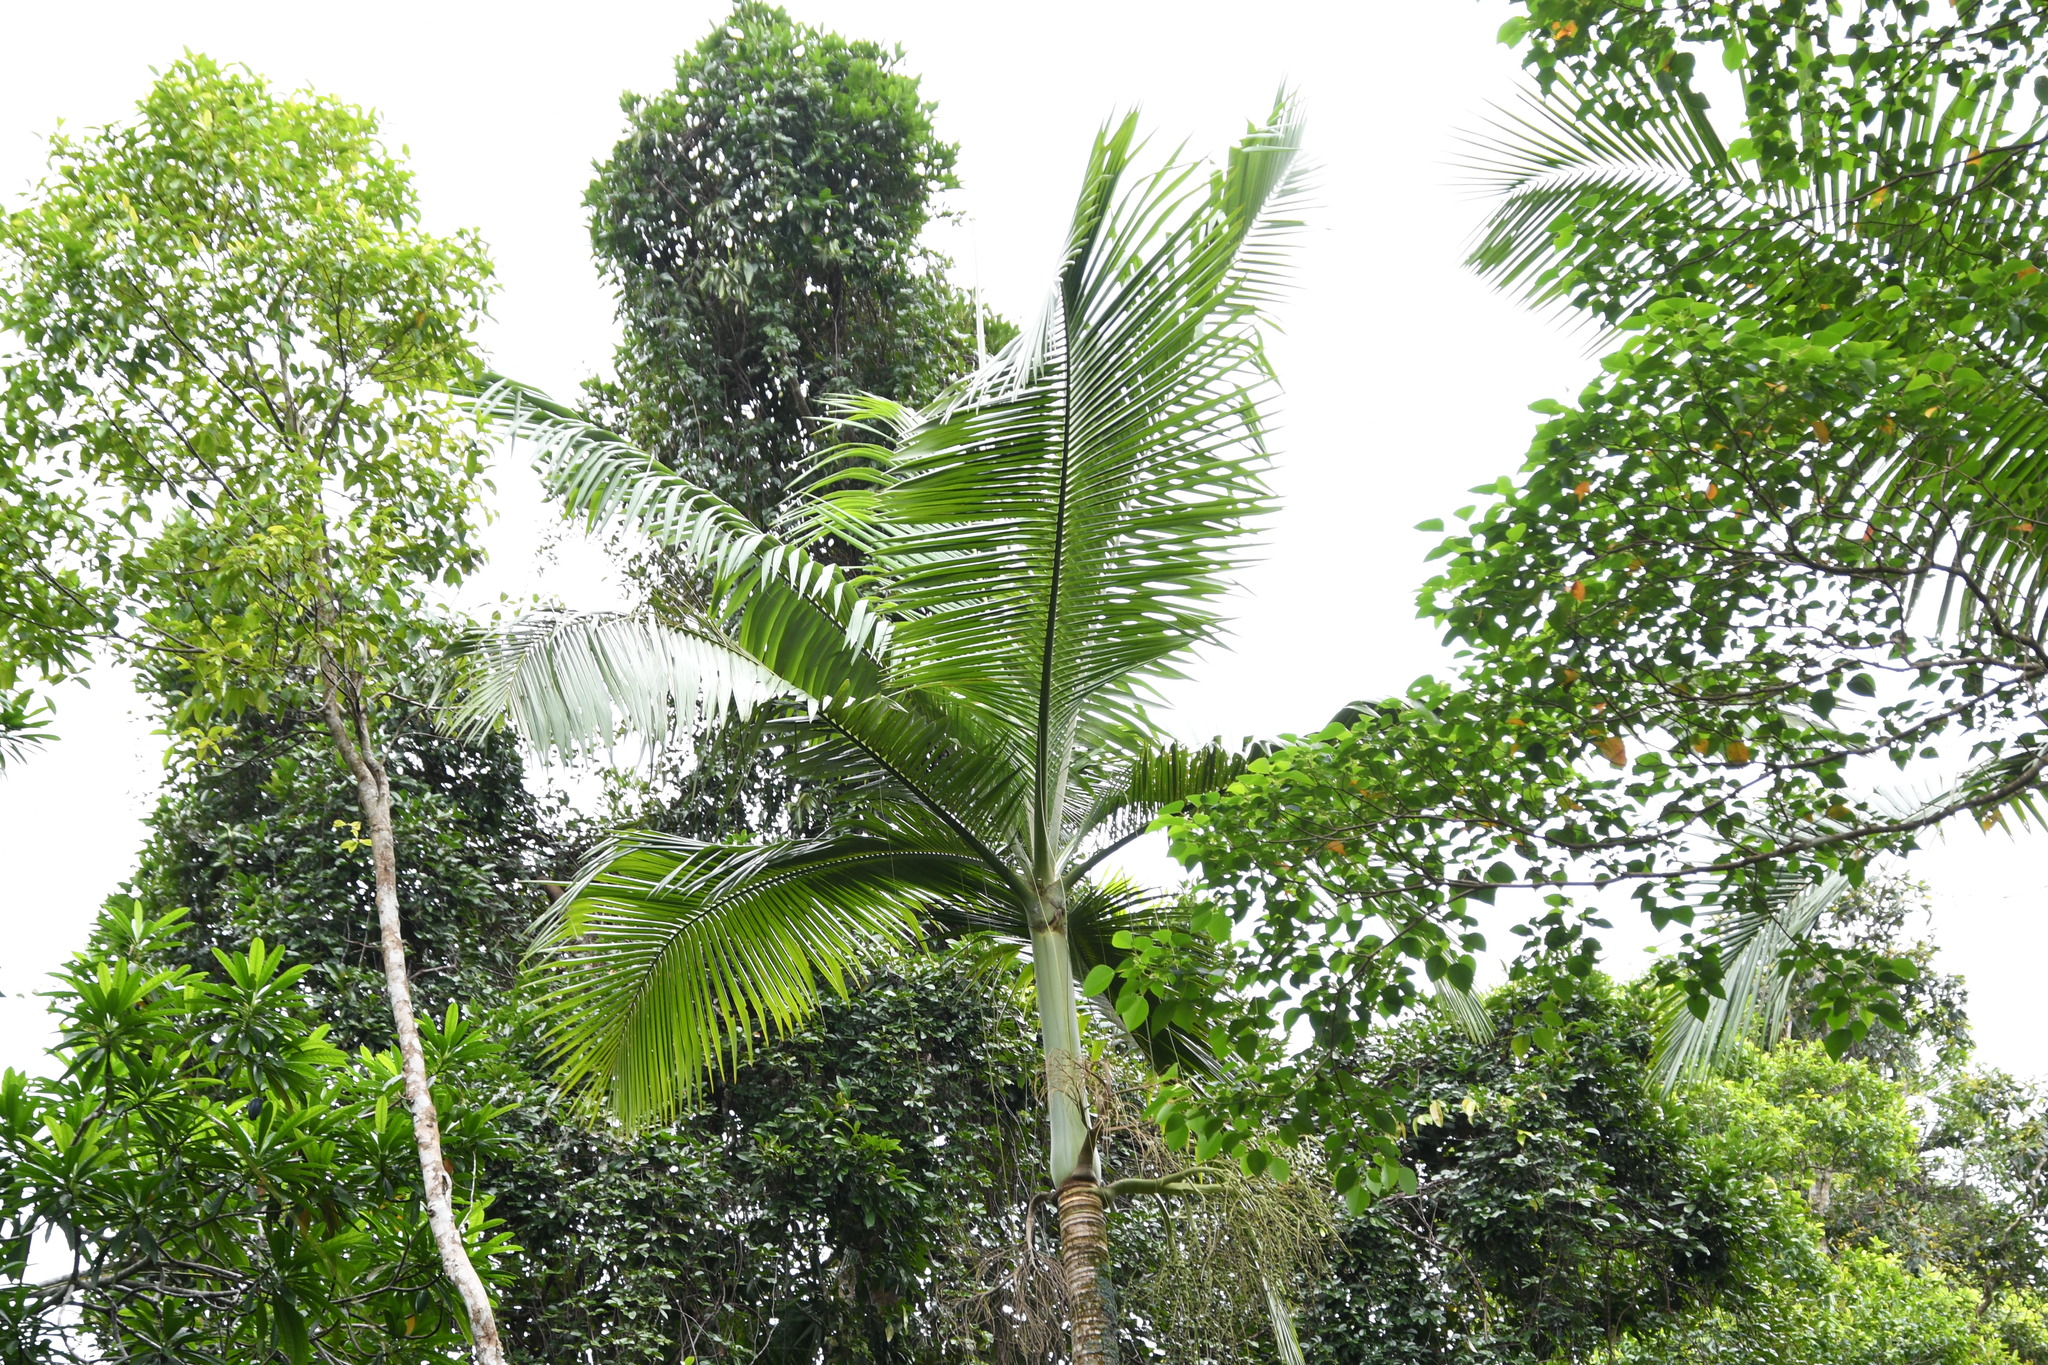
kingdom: Plantae
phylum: Tracheophyta
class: Liliopsida
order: Arecales
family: Arecaceae
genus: Archontophoenix
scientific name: Archontophoenix alexandrae
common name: Alexandra palm
